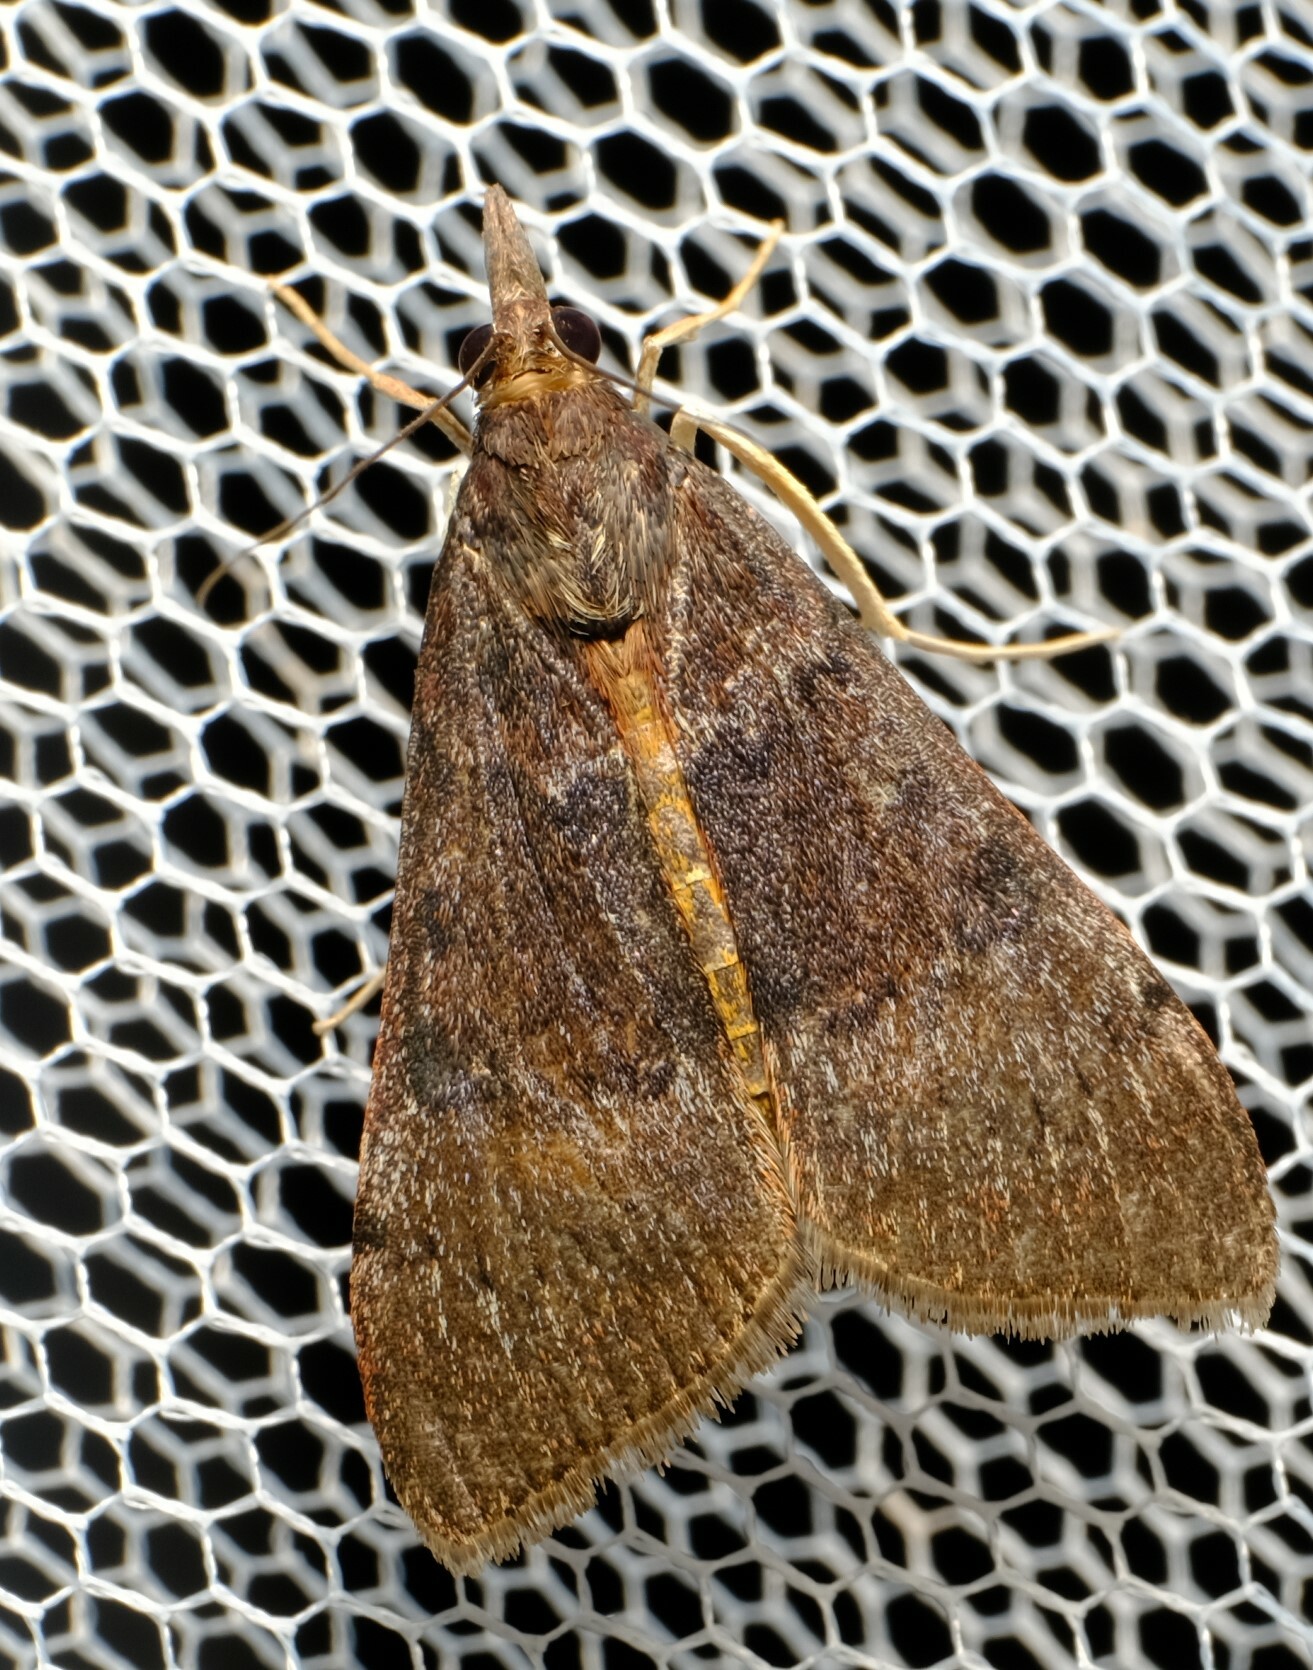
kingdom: Animalia
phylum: Arthropoda
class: Insecta
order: Lepidoptera
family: Crambidae
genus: Uresiphita
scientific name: Uresiphita ornithopteralis
